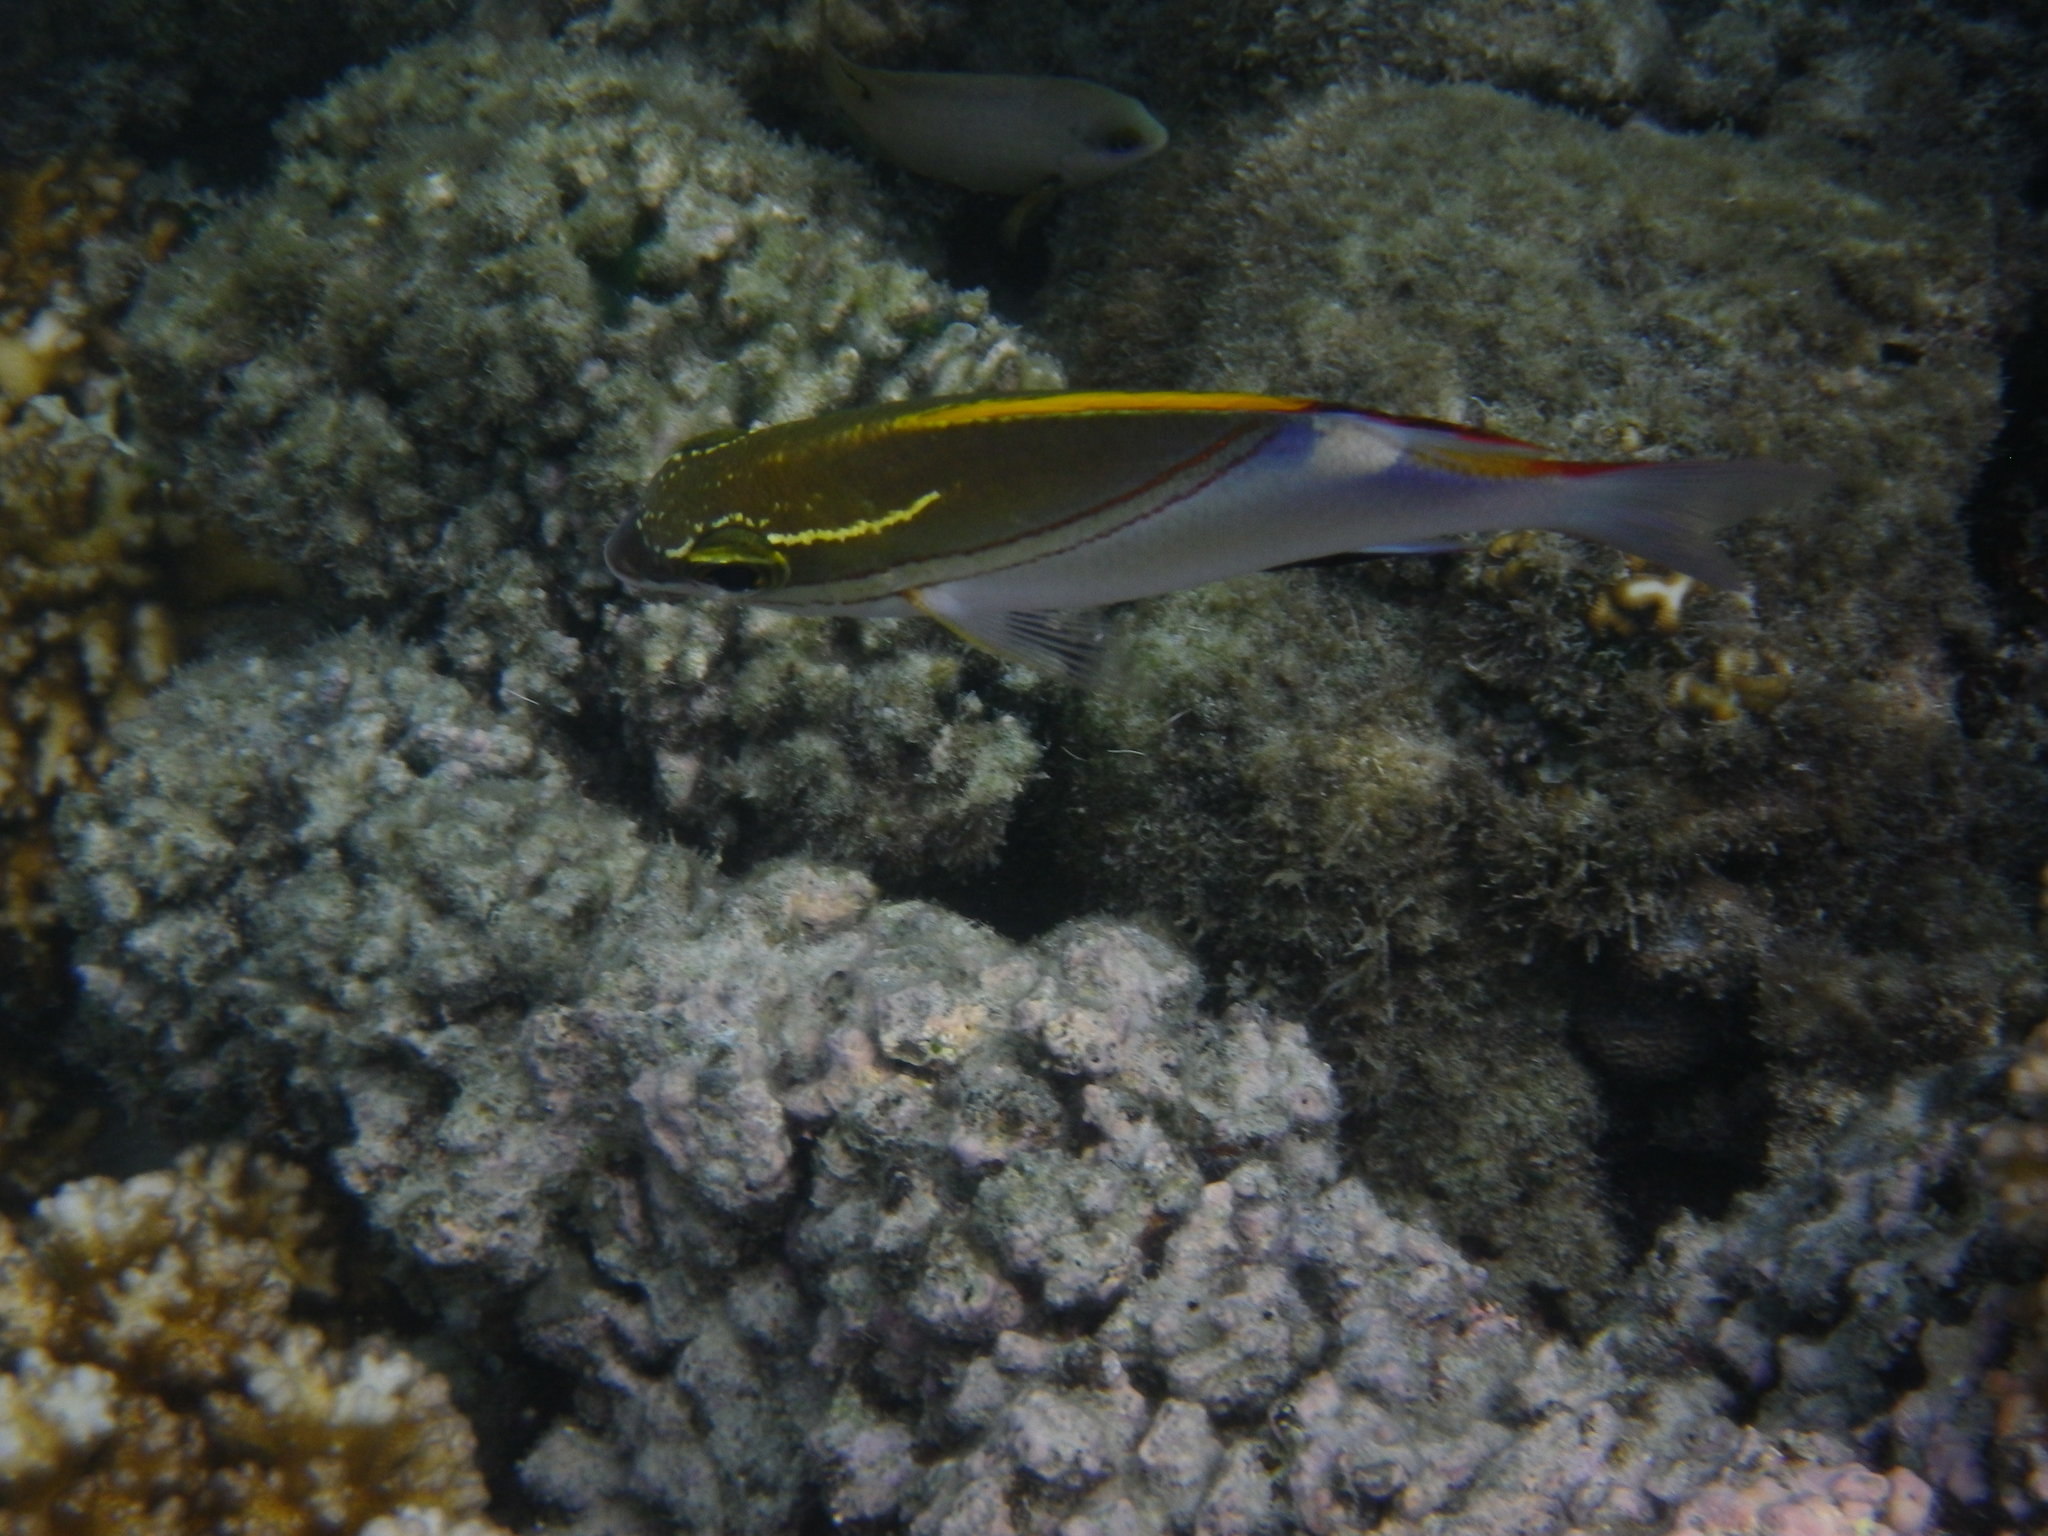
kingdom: Animalia
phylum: Chordata
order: Perciformes
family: Nemipteridae
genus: Scolopsis
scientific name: Scolopsis bilineata
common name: Two-lined monocle bream
